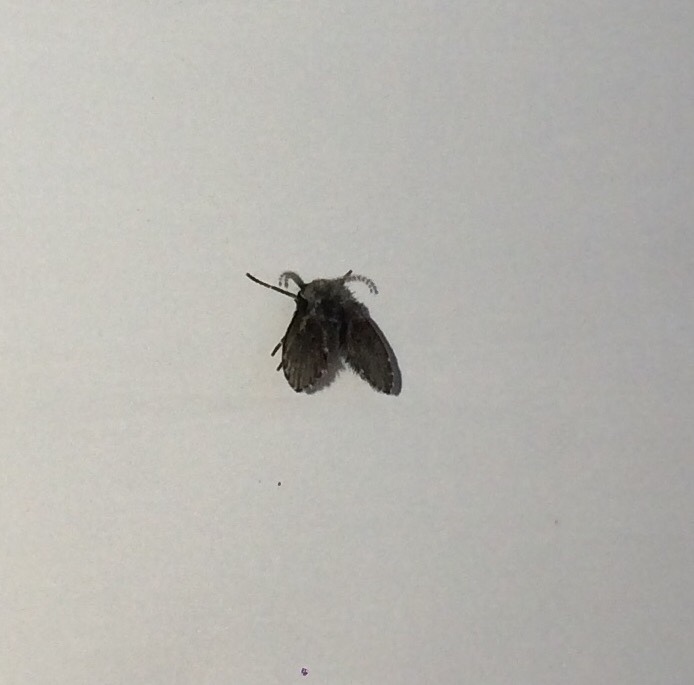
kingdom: Animalia
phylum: Arthropoda
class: Insecta
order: Diptera
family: Psychodidae
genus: Clogmia
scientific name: Clogmia albipunctatus
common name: White-spotted moth fly
